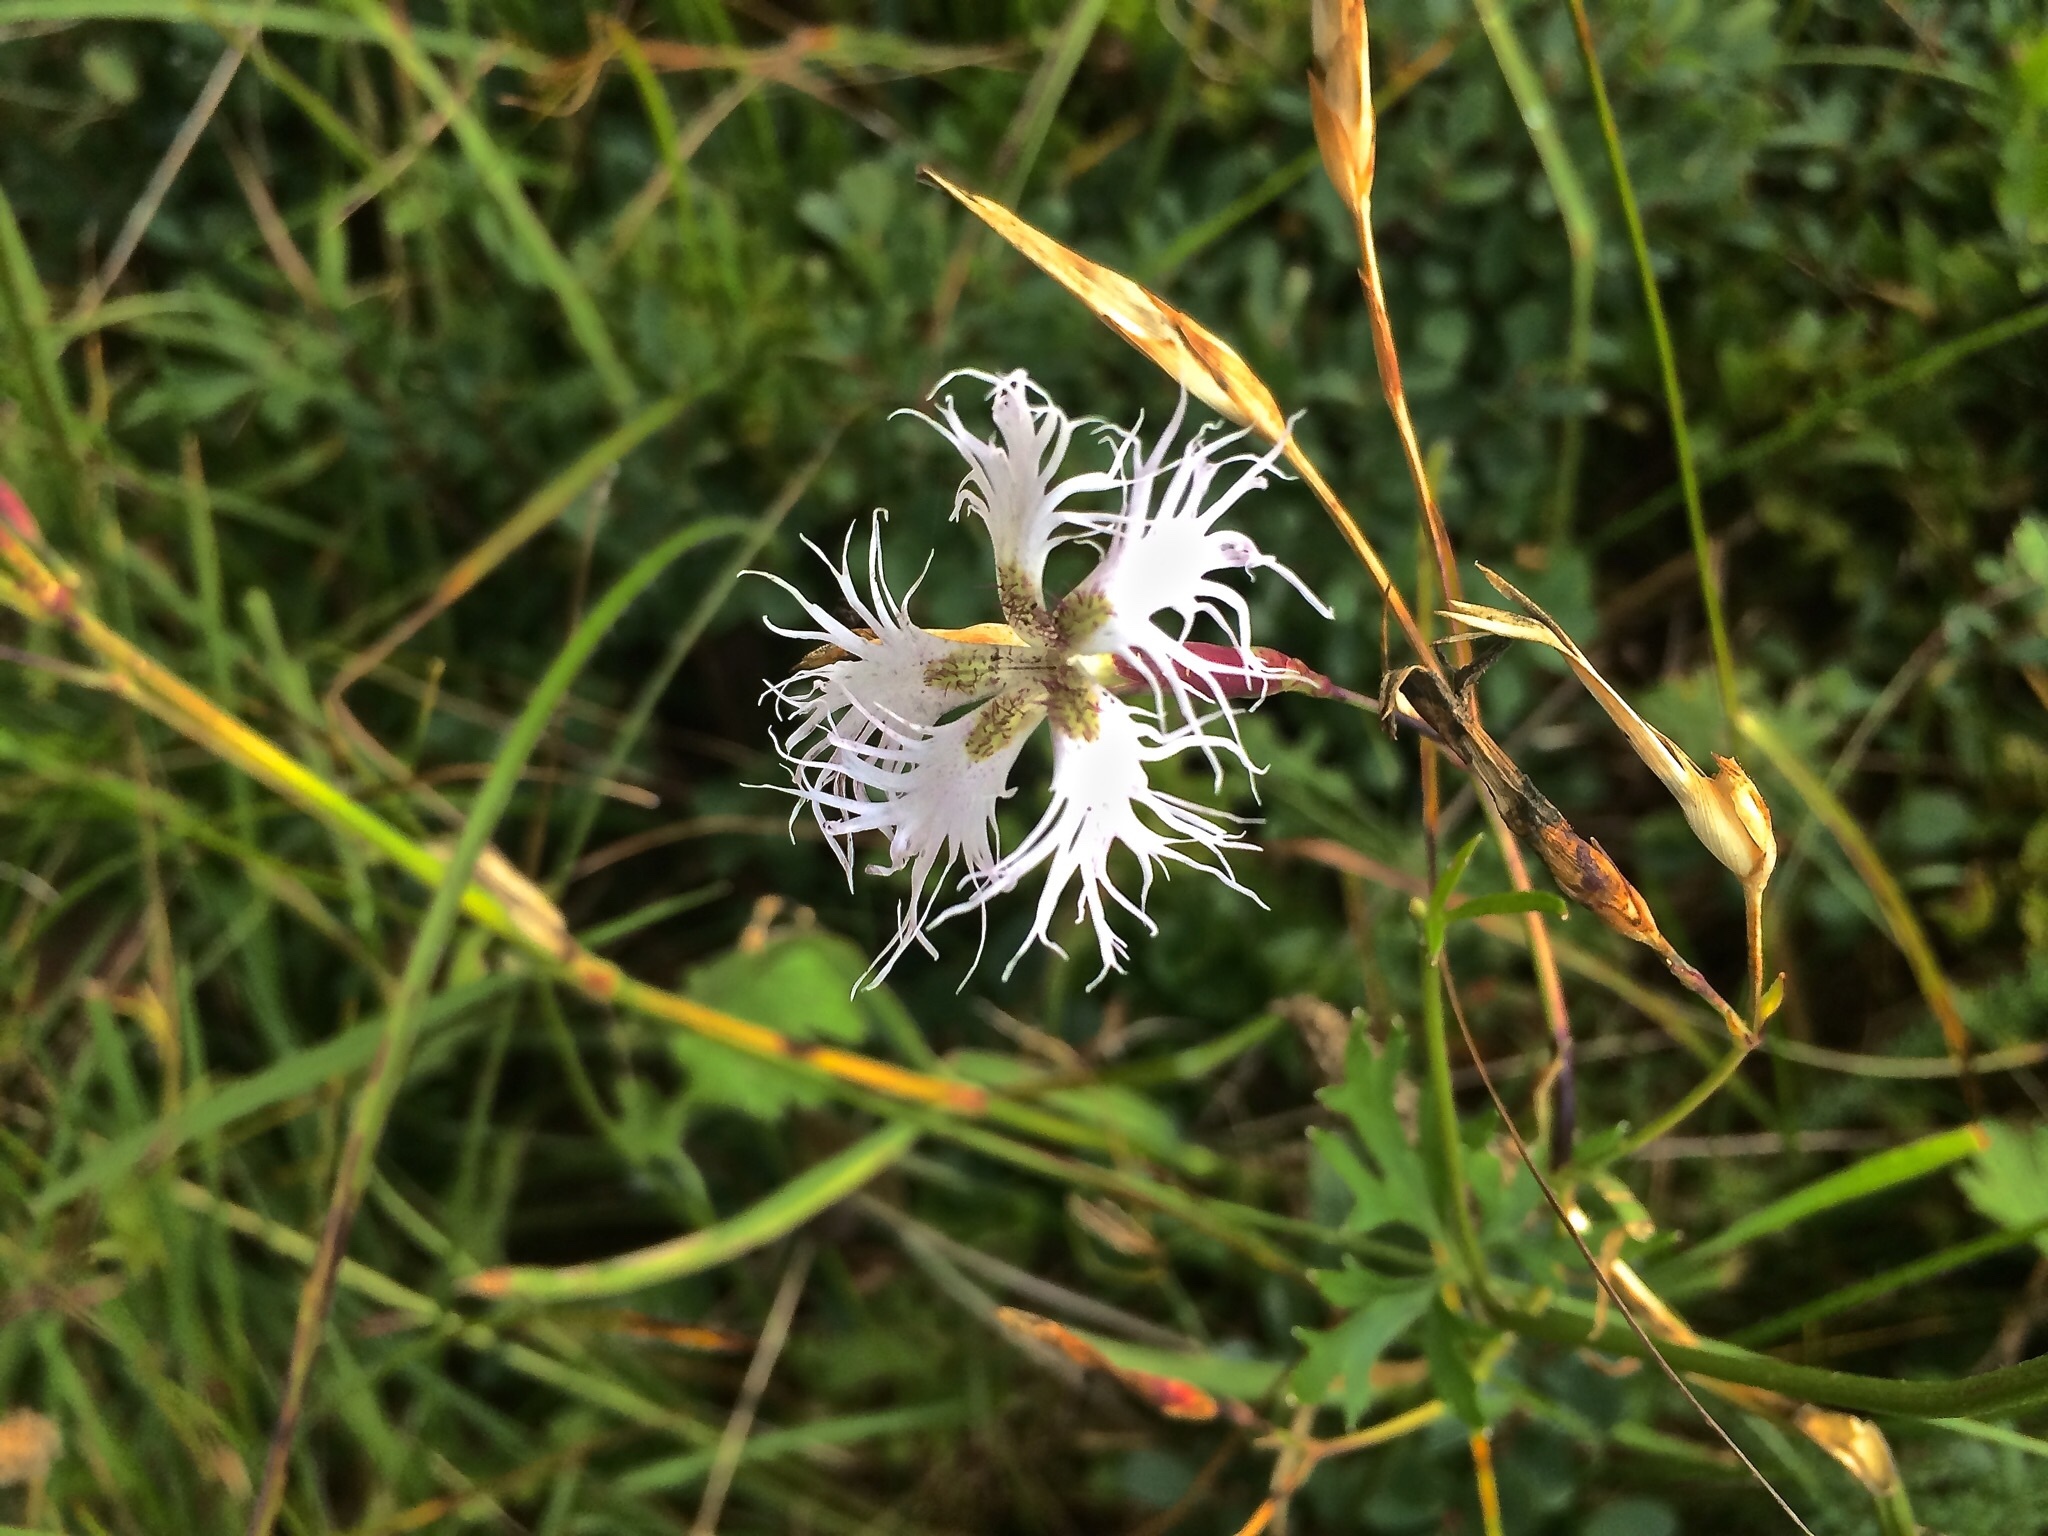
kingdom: Plantae
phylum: Tracheophyta
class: Magnoliopsida
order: Caryophyllales
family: Caryophyllaceae
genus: Dianthus
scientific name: Dianthus superbus
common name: Fringed pink
